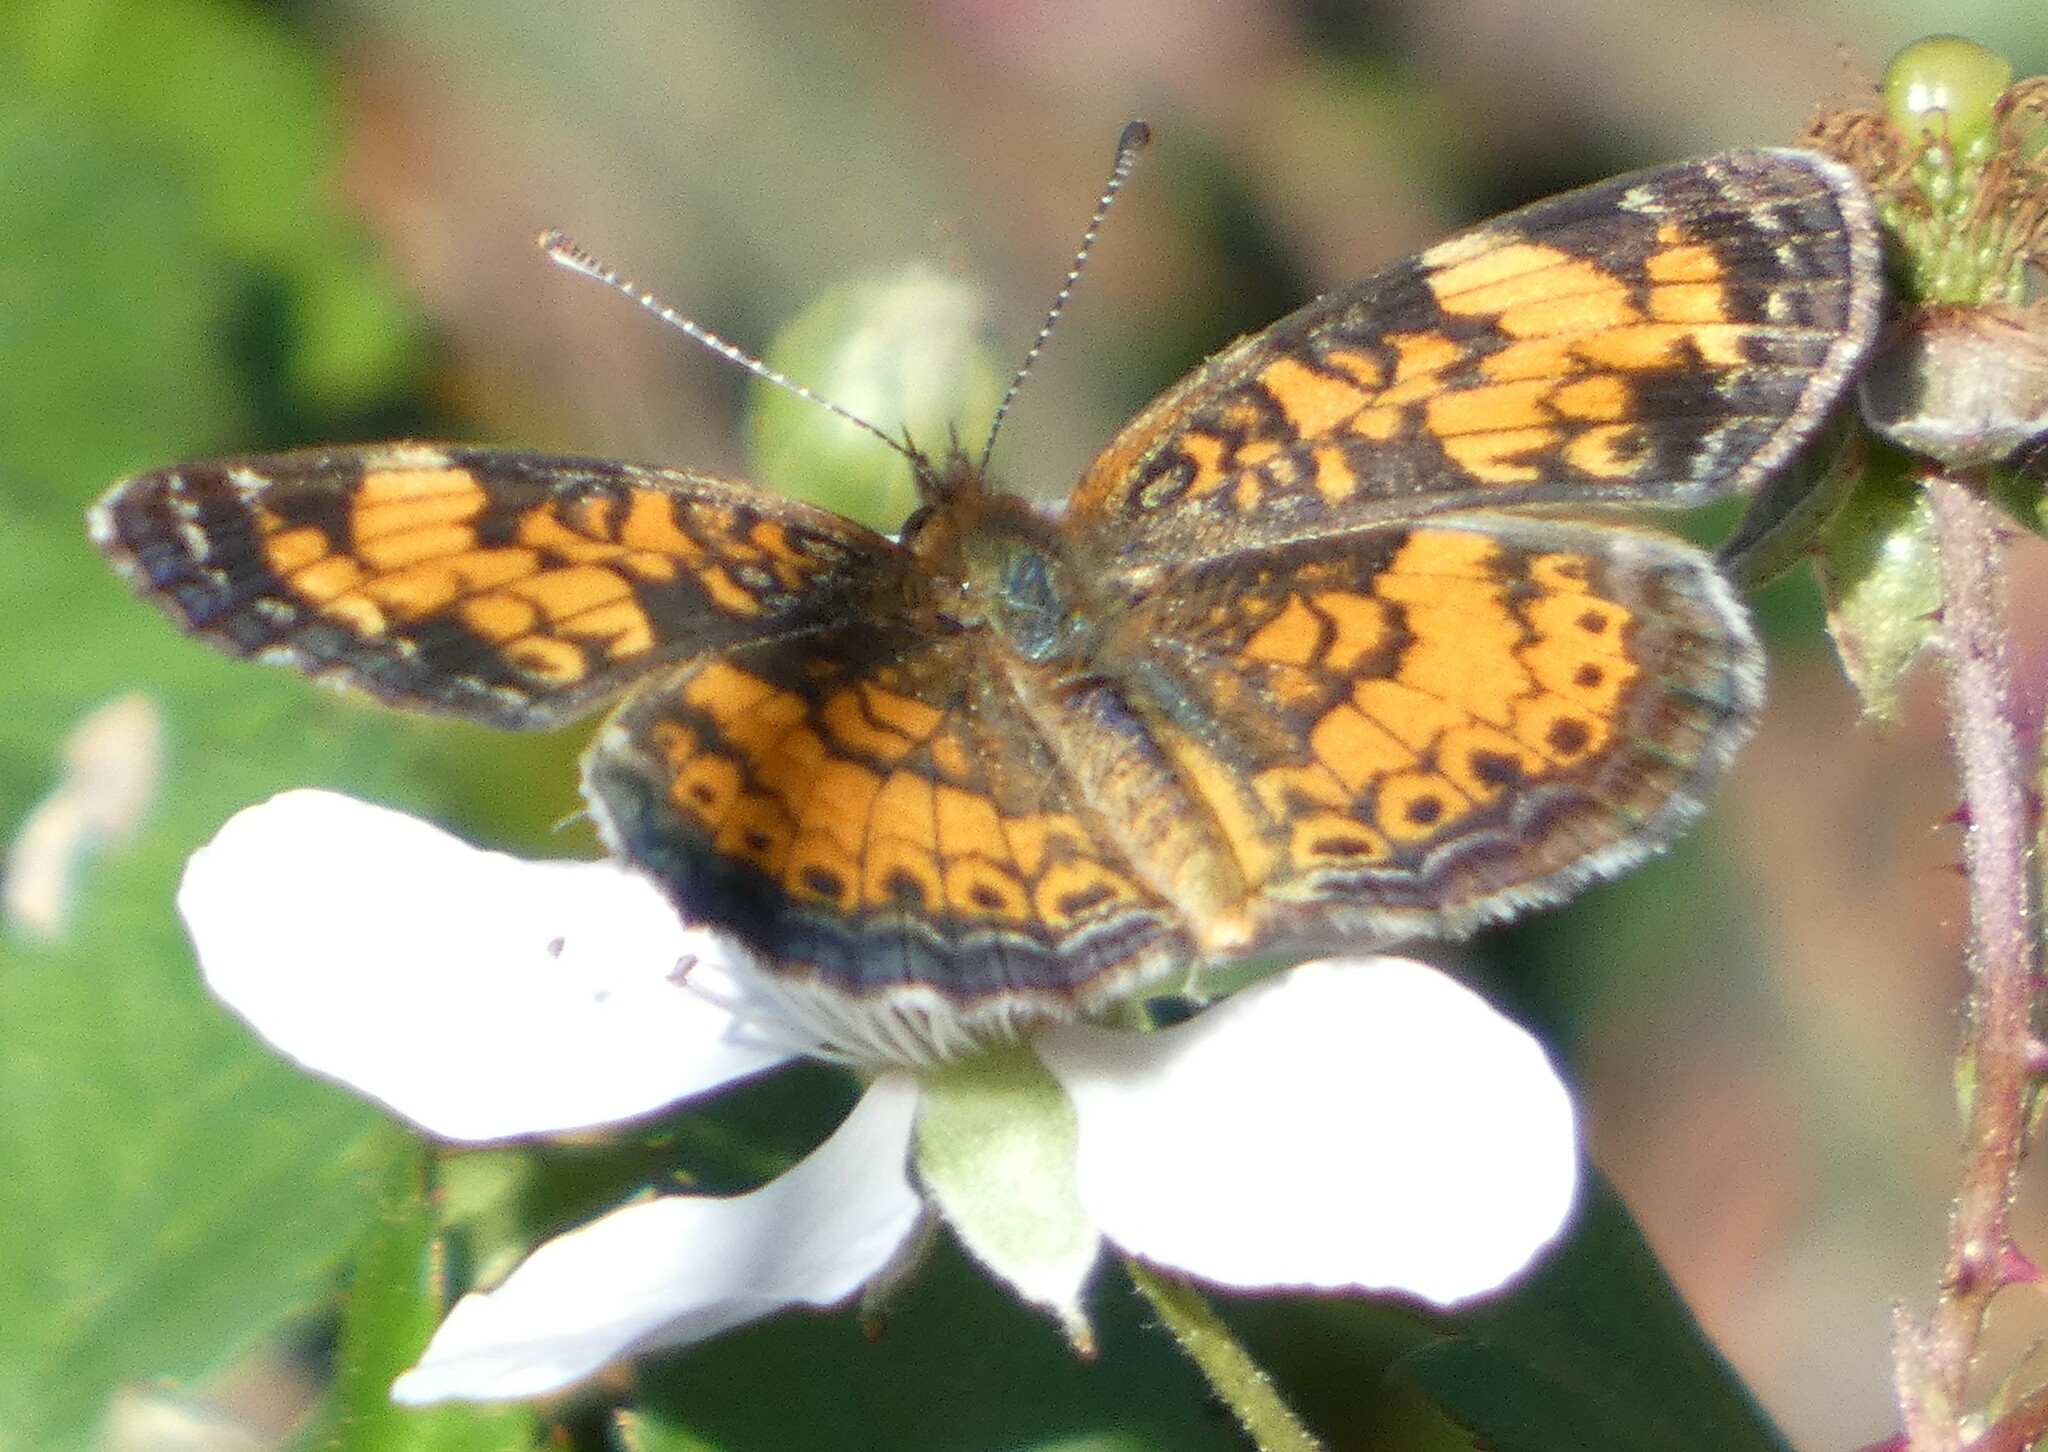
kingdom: Animalia
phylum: Arthropoda
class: Insecta
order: Lepidoptera
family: Nymphalidae
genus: Phyciodes
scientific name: Phyciodes tharos
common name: Pearl crescent
